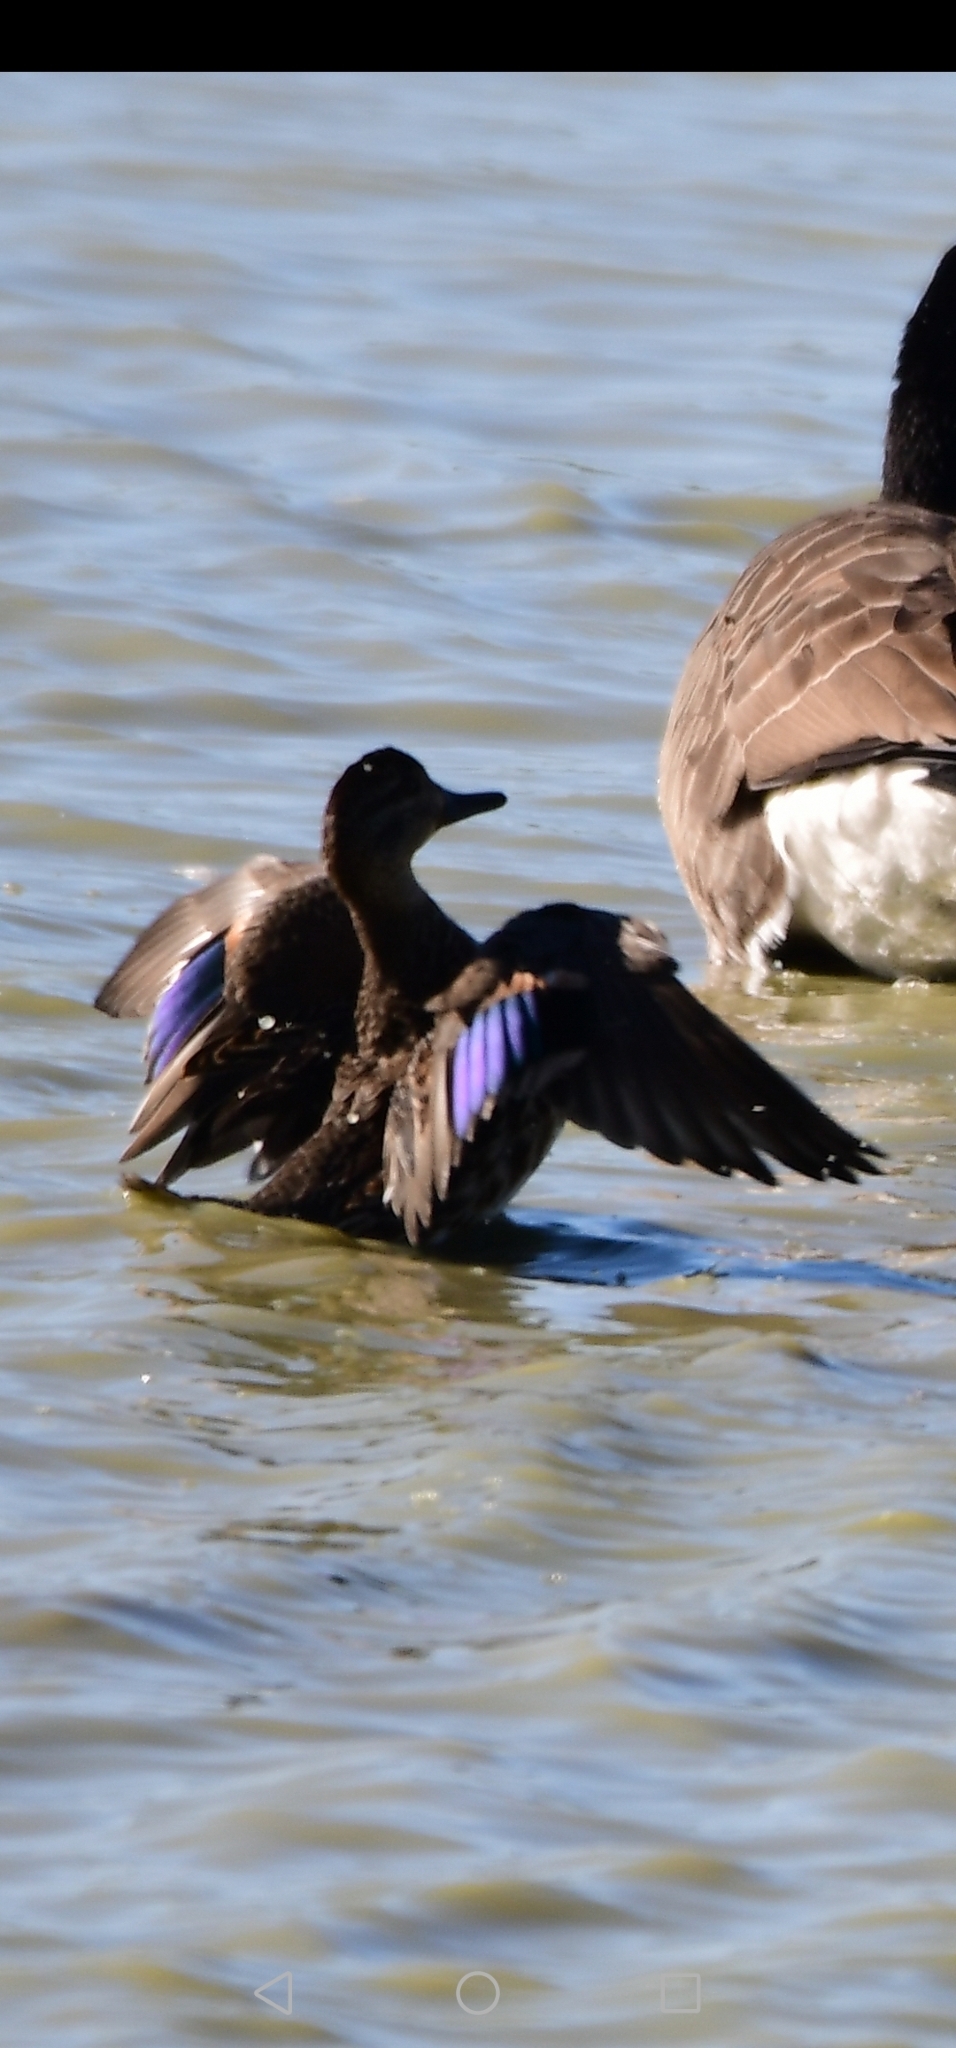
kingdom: Animalia
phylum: Chordata
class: Aves
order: Anseriformes
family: Anatidae
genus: Anas
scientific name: Anas crecca
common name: Eurasian teal
